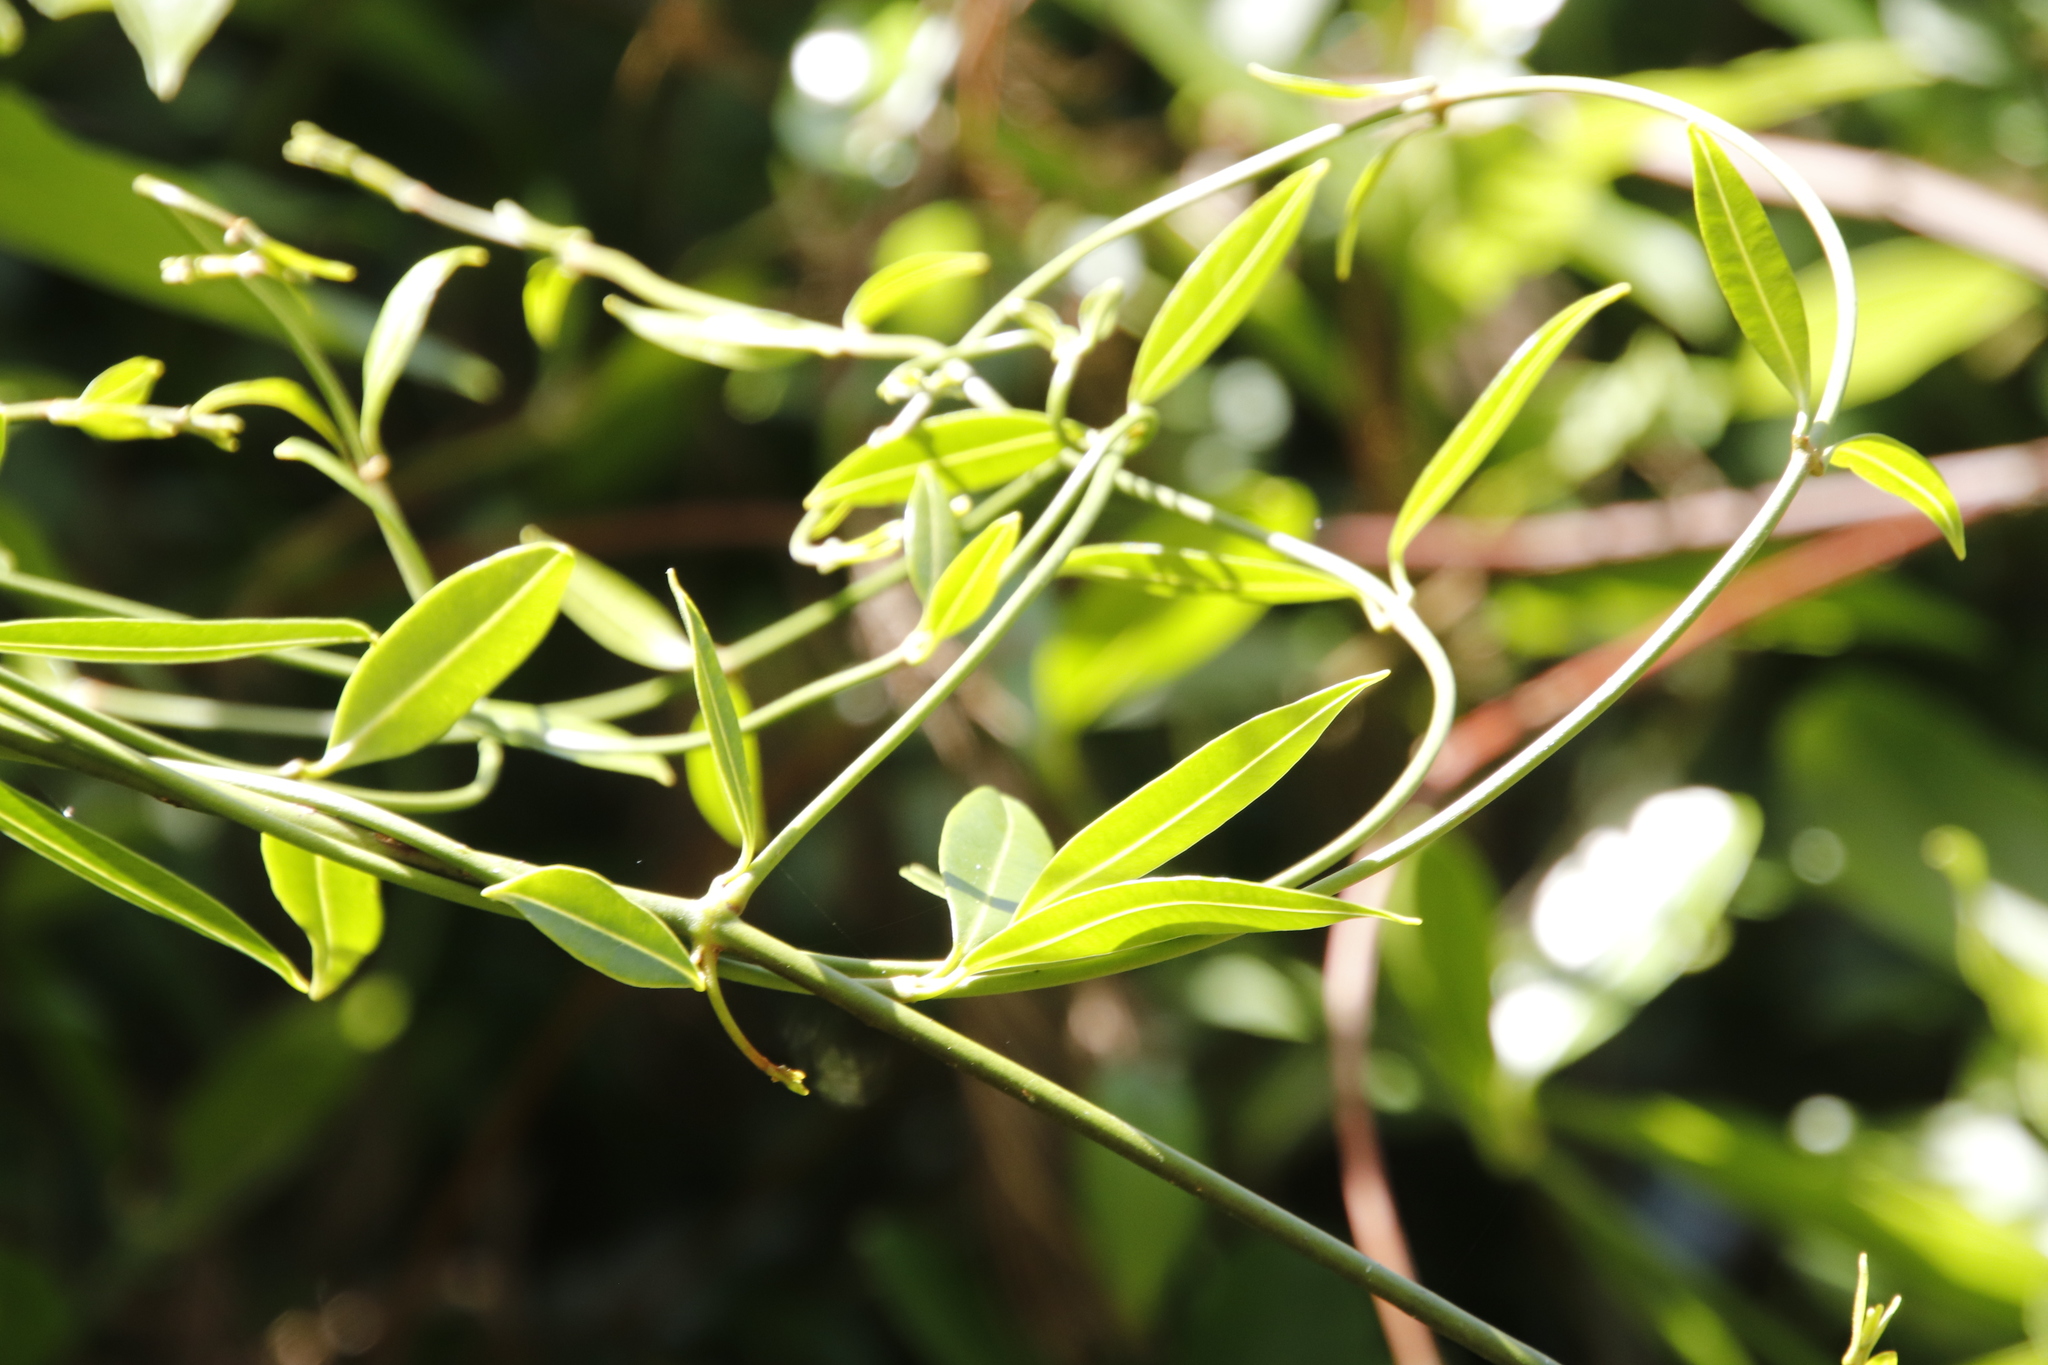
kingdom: Plantae
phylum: Tracheophyta
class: Magnoliopsida
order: Gentianales
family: Apocynaceae
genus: Secamone
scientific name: Secamone alpini
